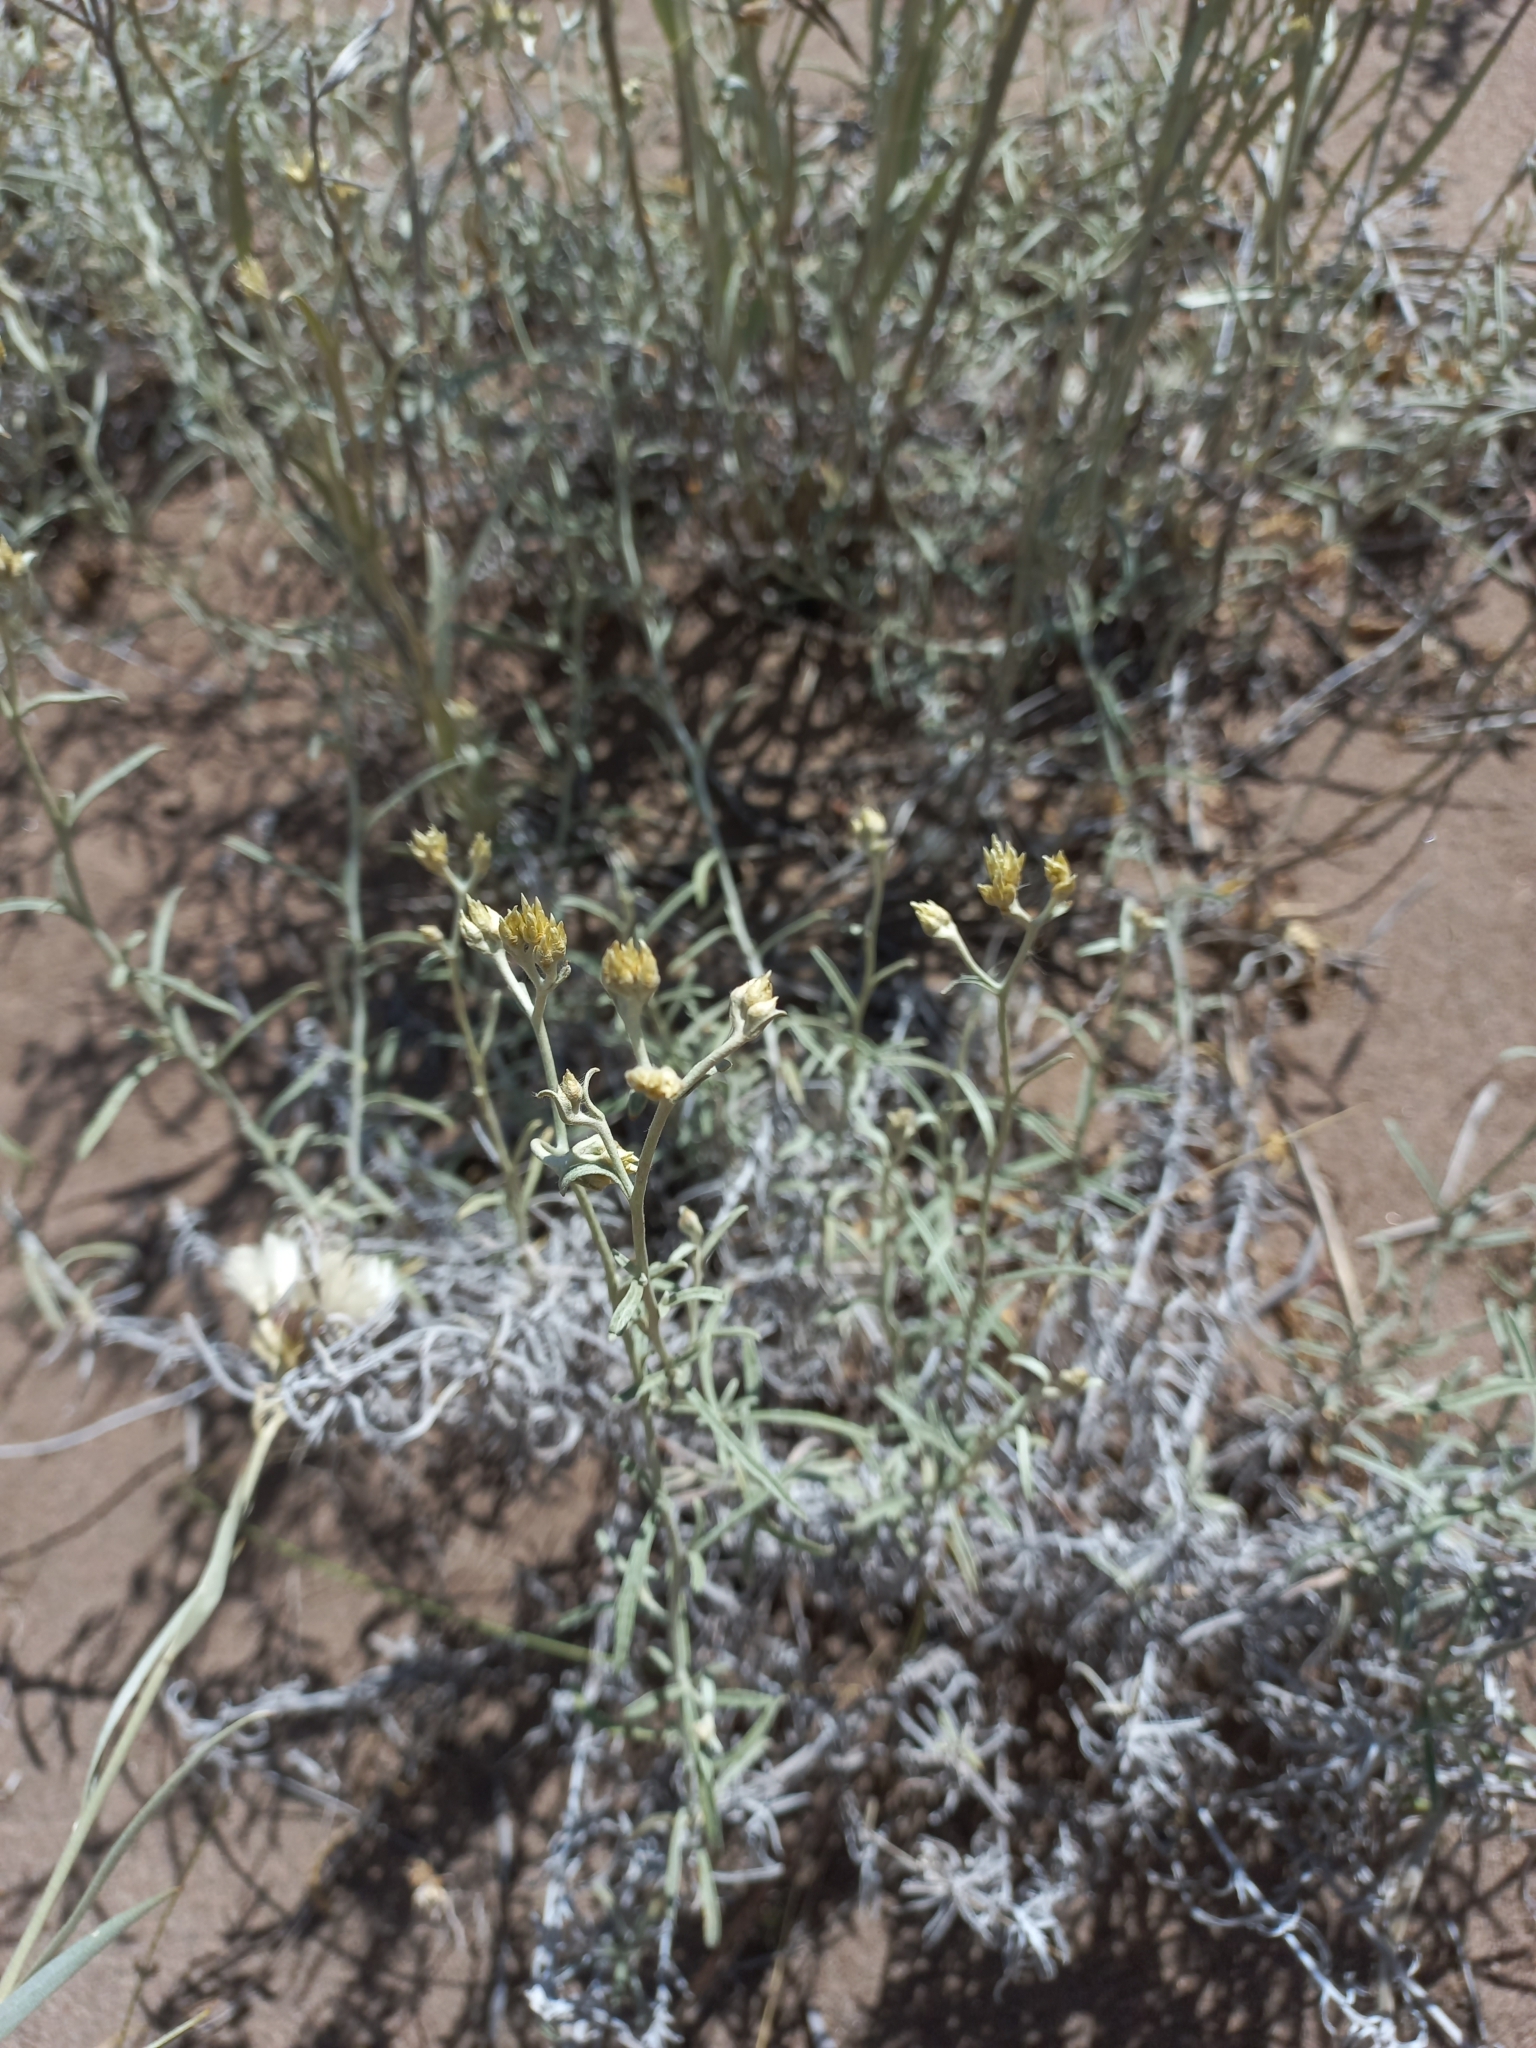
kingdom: Plantae
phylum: Tracheophyta
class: Magnoliopsida
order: Asterales
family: Asteraceae
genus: Achyrocline
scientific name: Achyrocline satureioides
